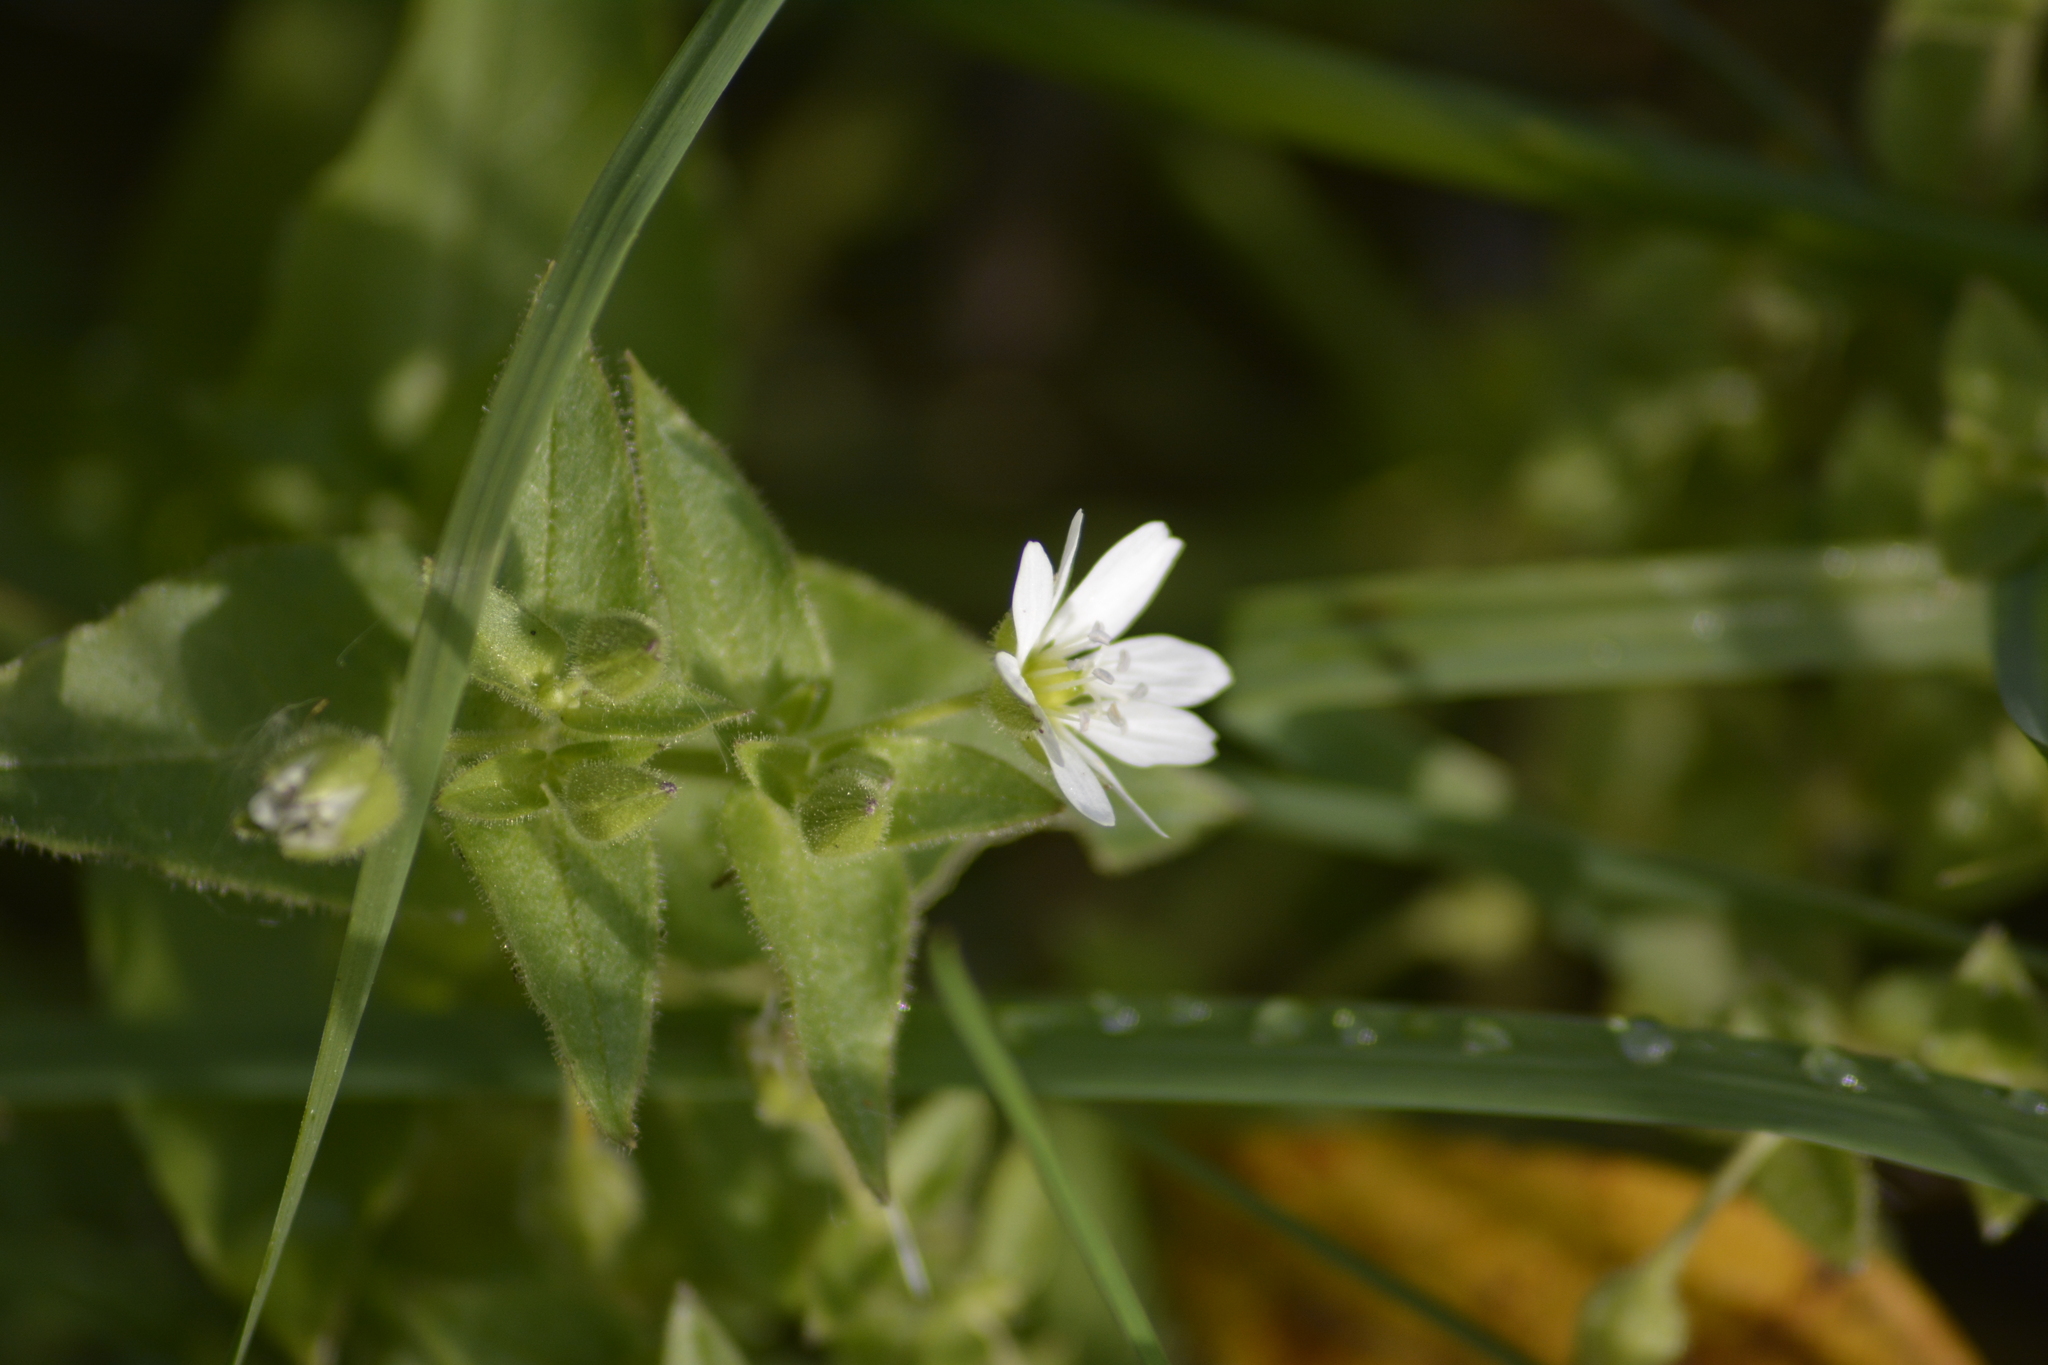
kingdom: Plantae
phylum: Tracheophyta
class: Magnoliopsida
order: Caryophyllales
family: Caryophyllaceae
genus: Stellaria
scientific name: Stellaria aquatica
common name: Water chickweed
